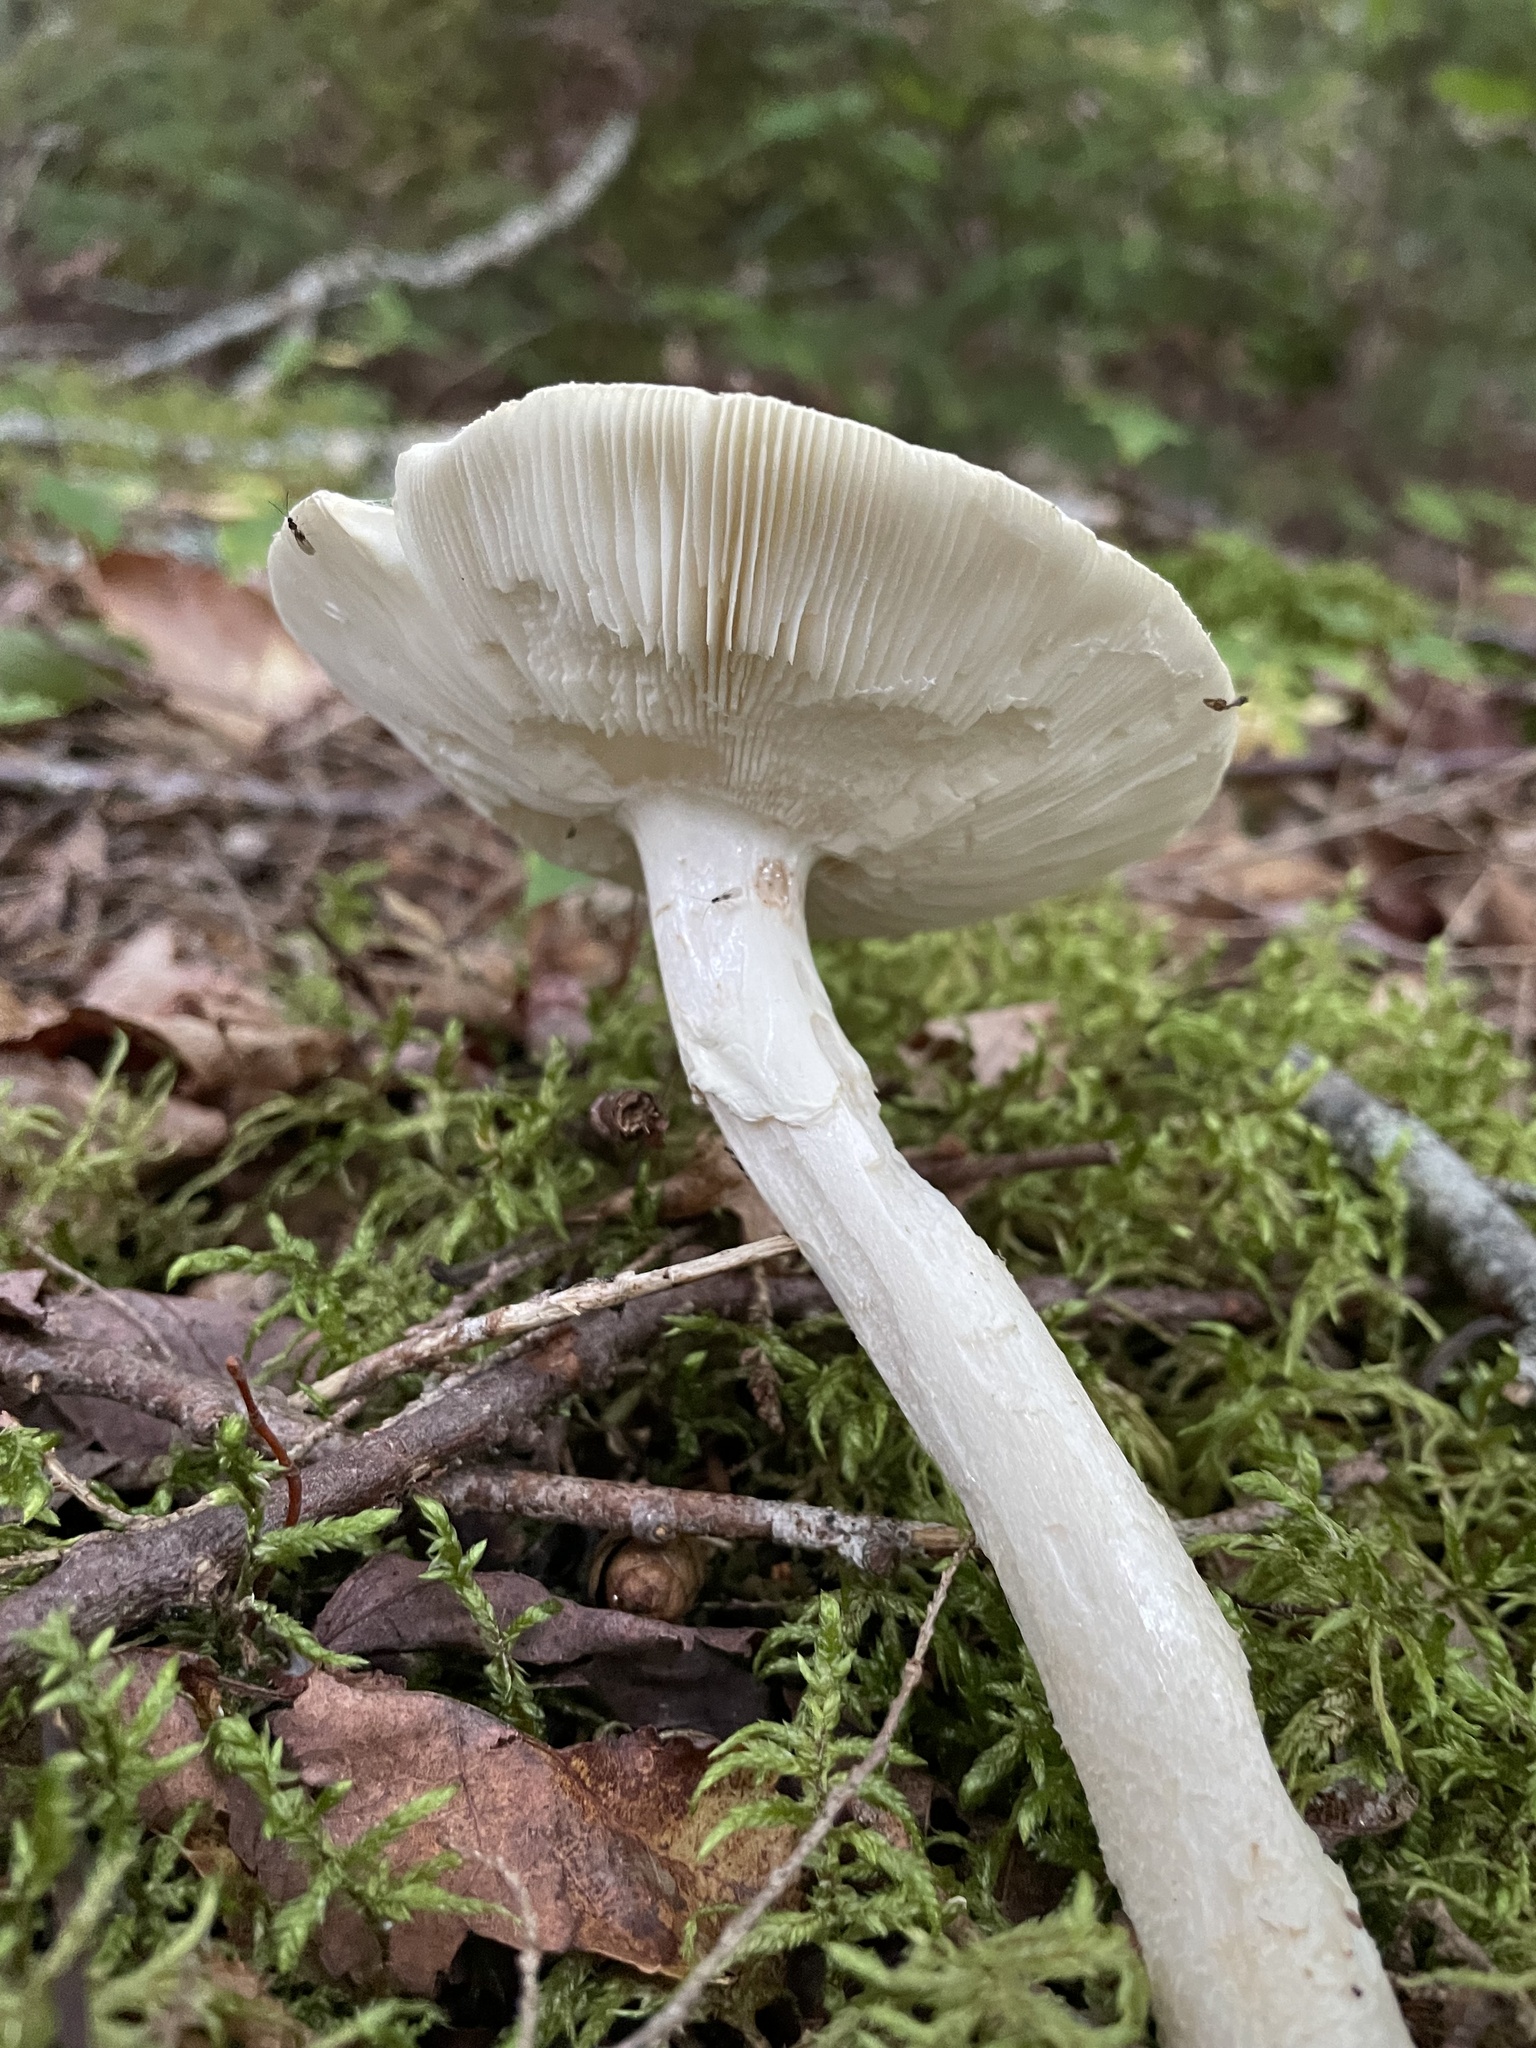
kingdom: Fungi
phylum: Basidiomycota
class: Agaricomycetes
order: Agaricales
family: Amanitaceae
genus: Amanita
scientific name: Amanita rhacopus
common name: Shaggy legged ringless amanita
